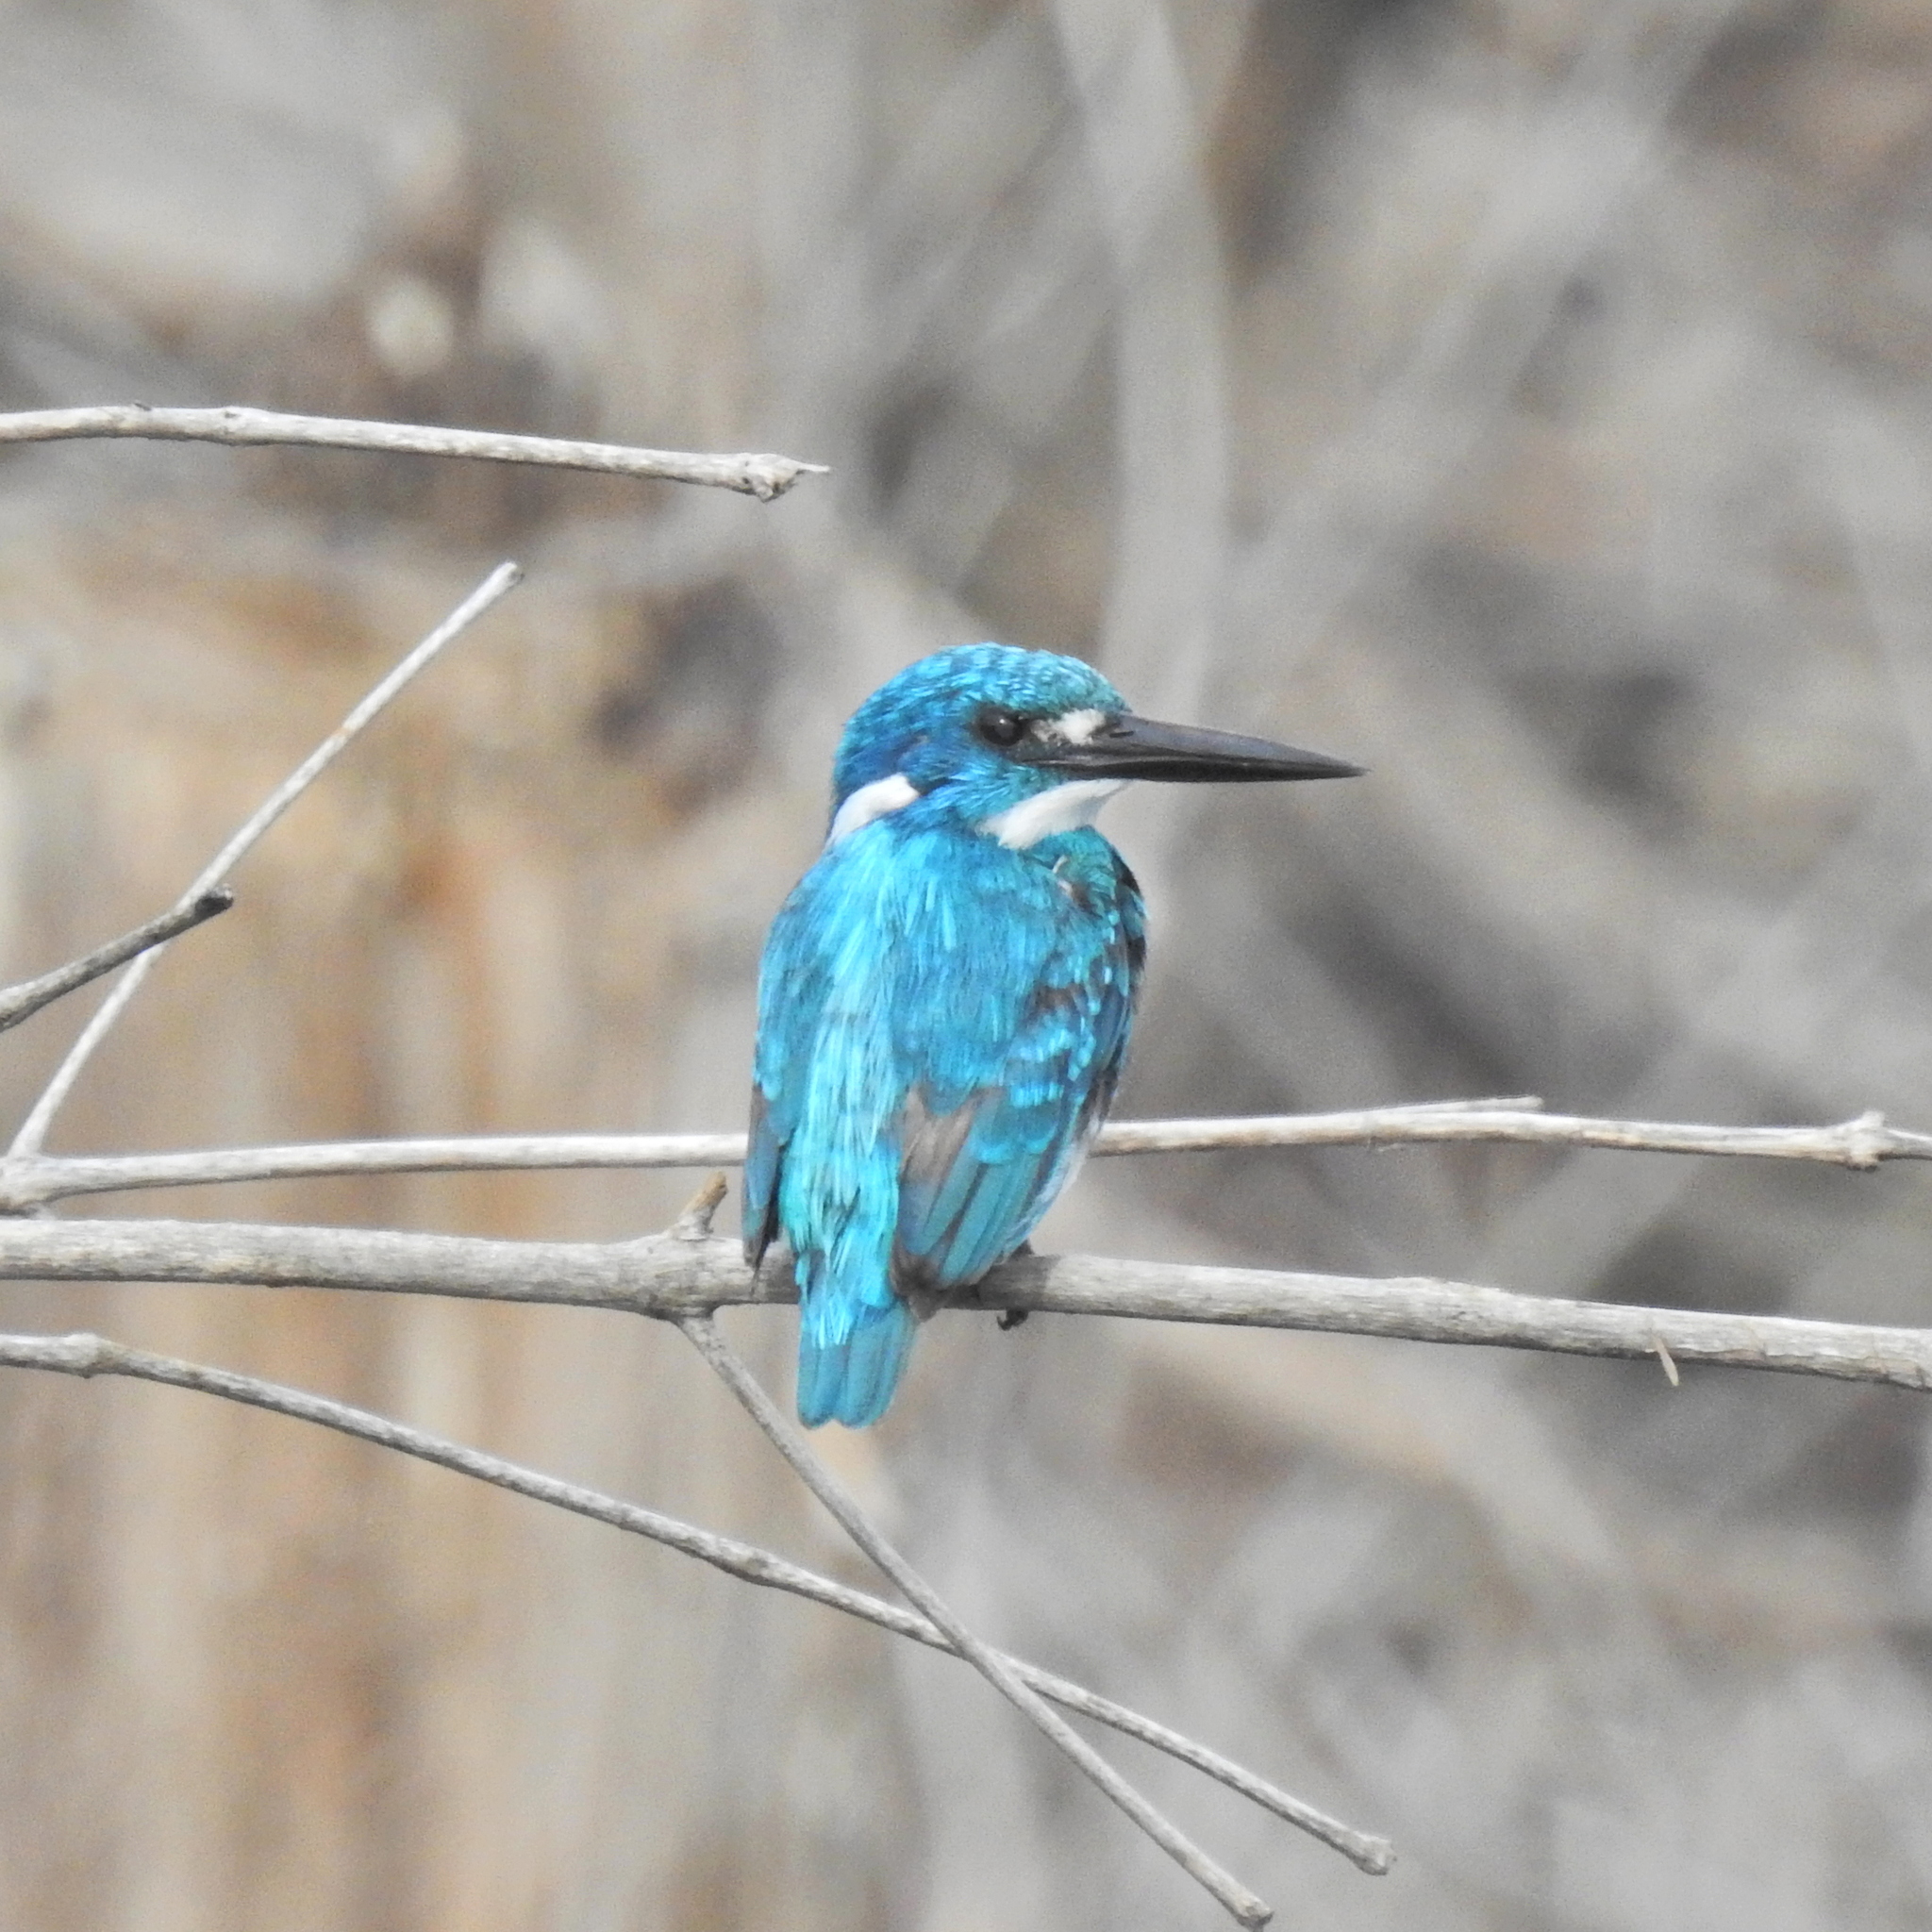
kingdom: Animalia
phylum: Chordata
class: Aves
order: Coraciiformes
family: Alcedinidae
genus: Alcedo
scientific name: Alcedo coerulescens
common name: Cerulean kingfisher
